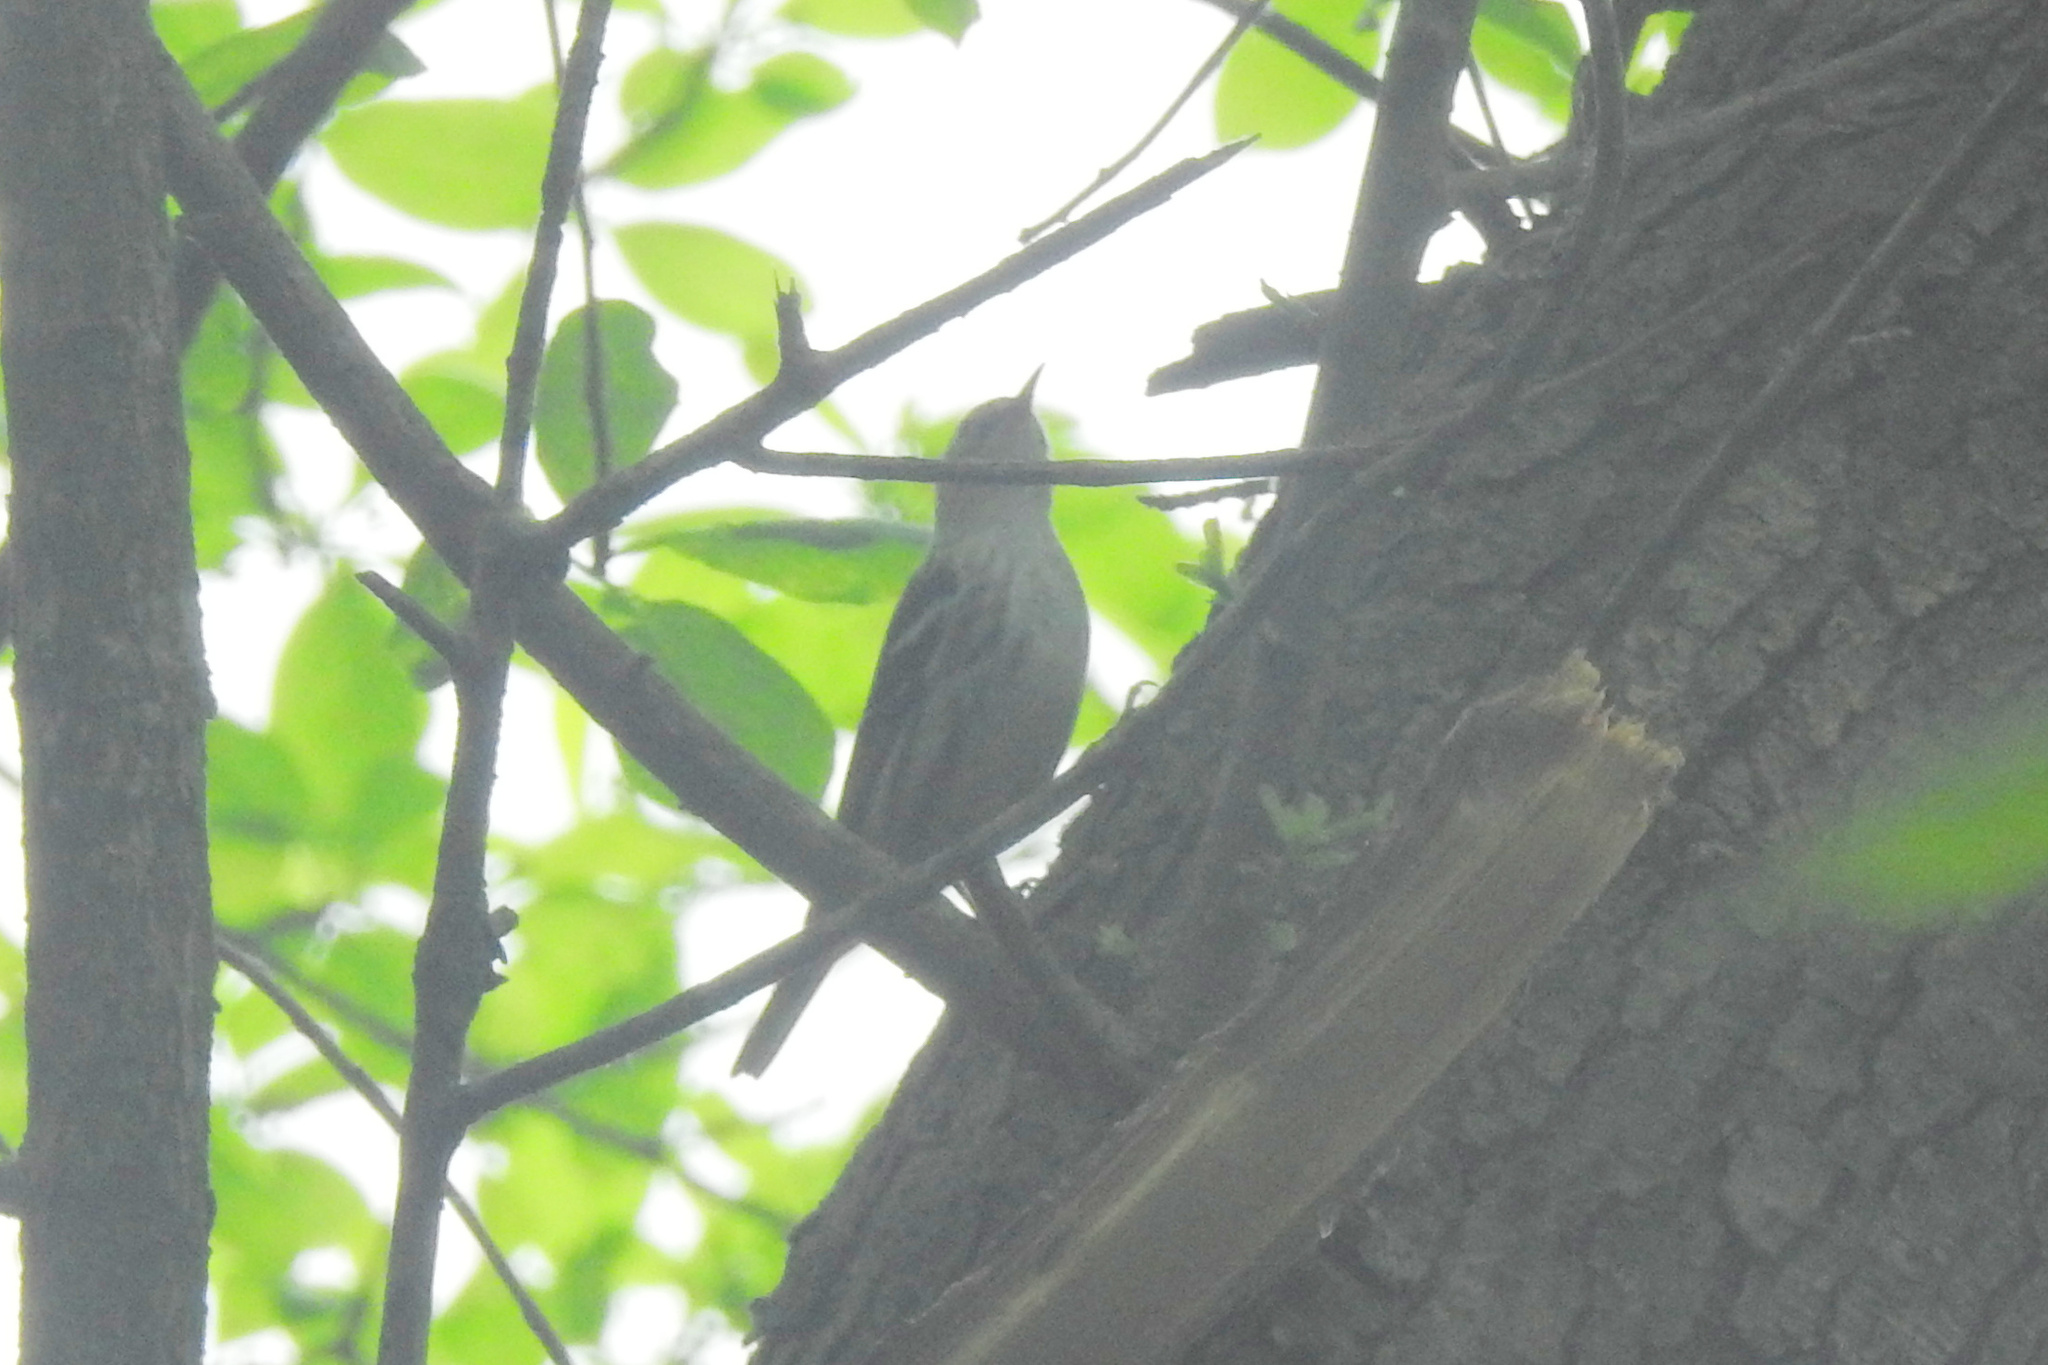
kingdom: Animalia
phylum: Chordata
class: Aves
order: Passeriformes
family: Parulidae
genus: Mniotilta
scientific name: Mniotilta varia
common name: Black-and-white warbler
